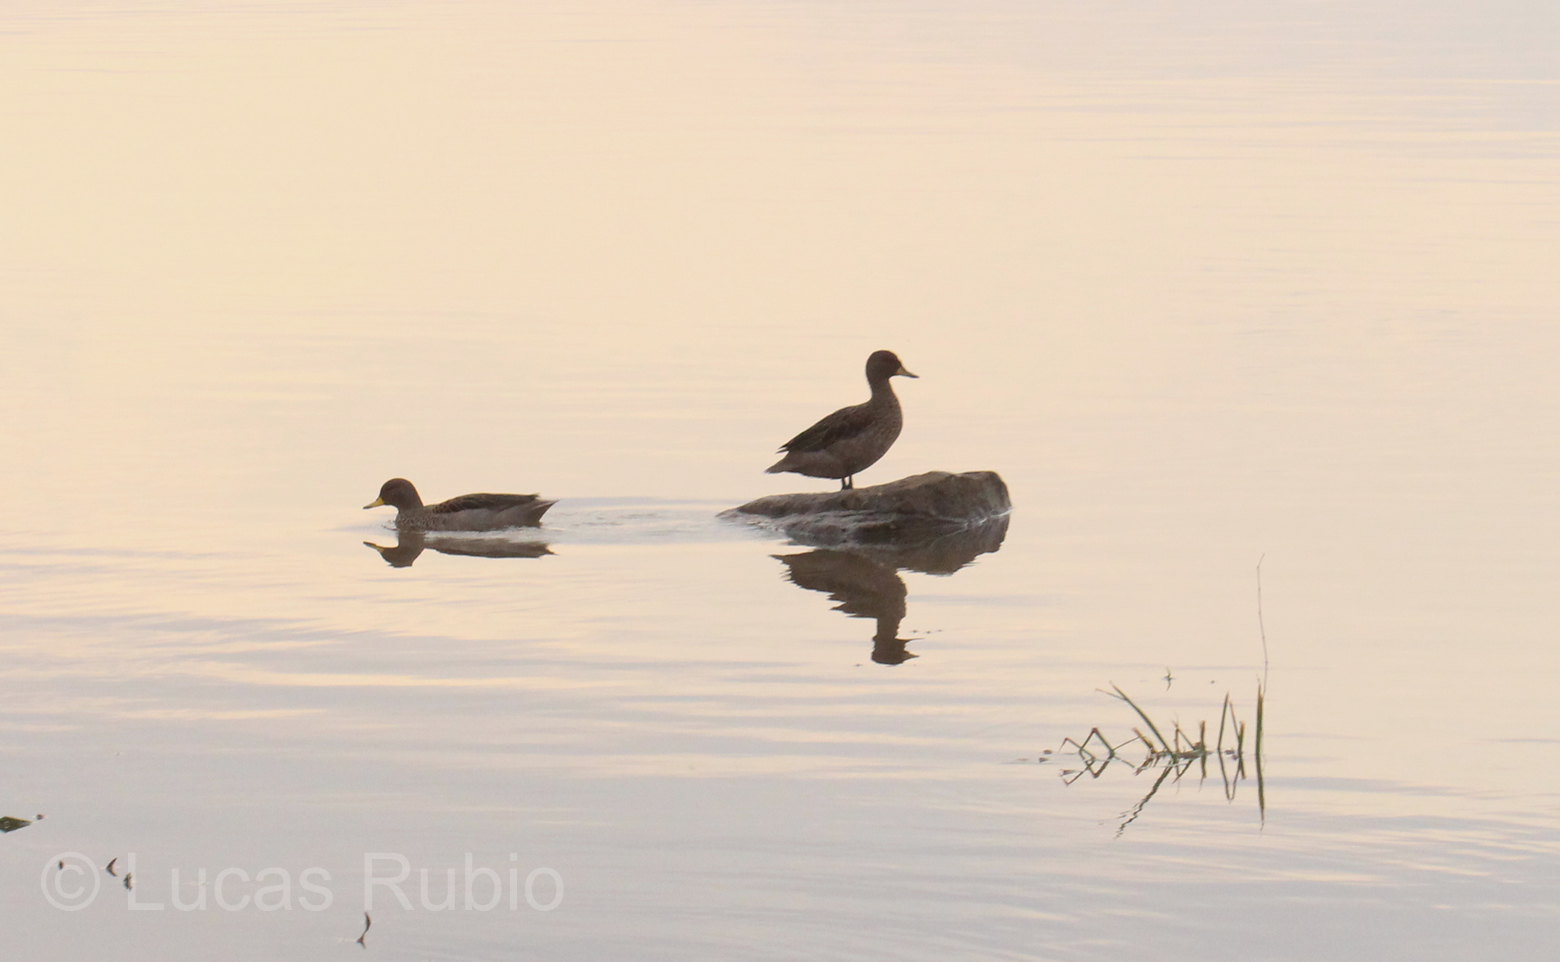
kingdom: Animalia
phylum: Chordata
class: Aves
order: Anseriformes
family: Anatidae
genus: Anas
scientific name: Anas flavirostris
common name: Yellow-billed teal
